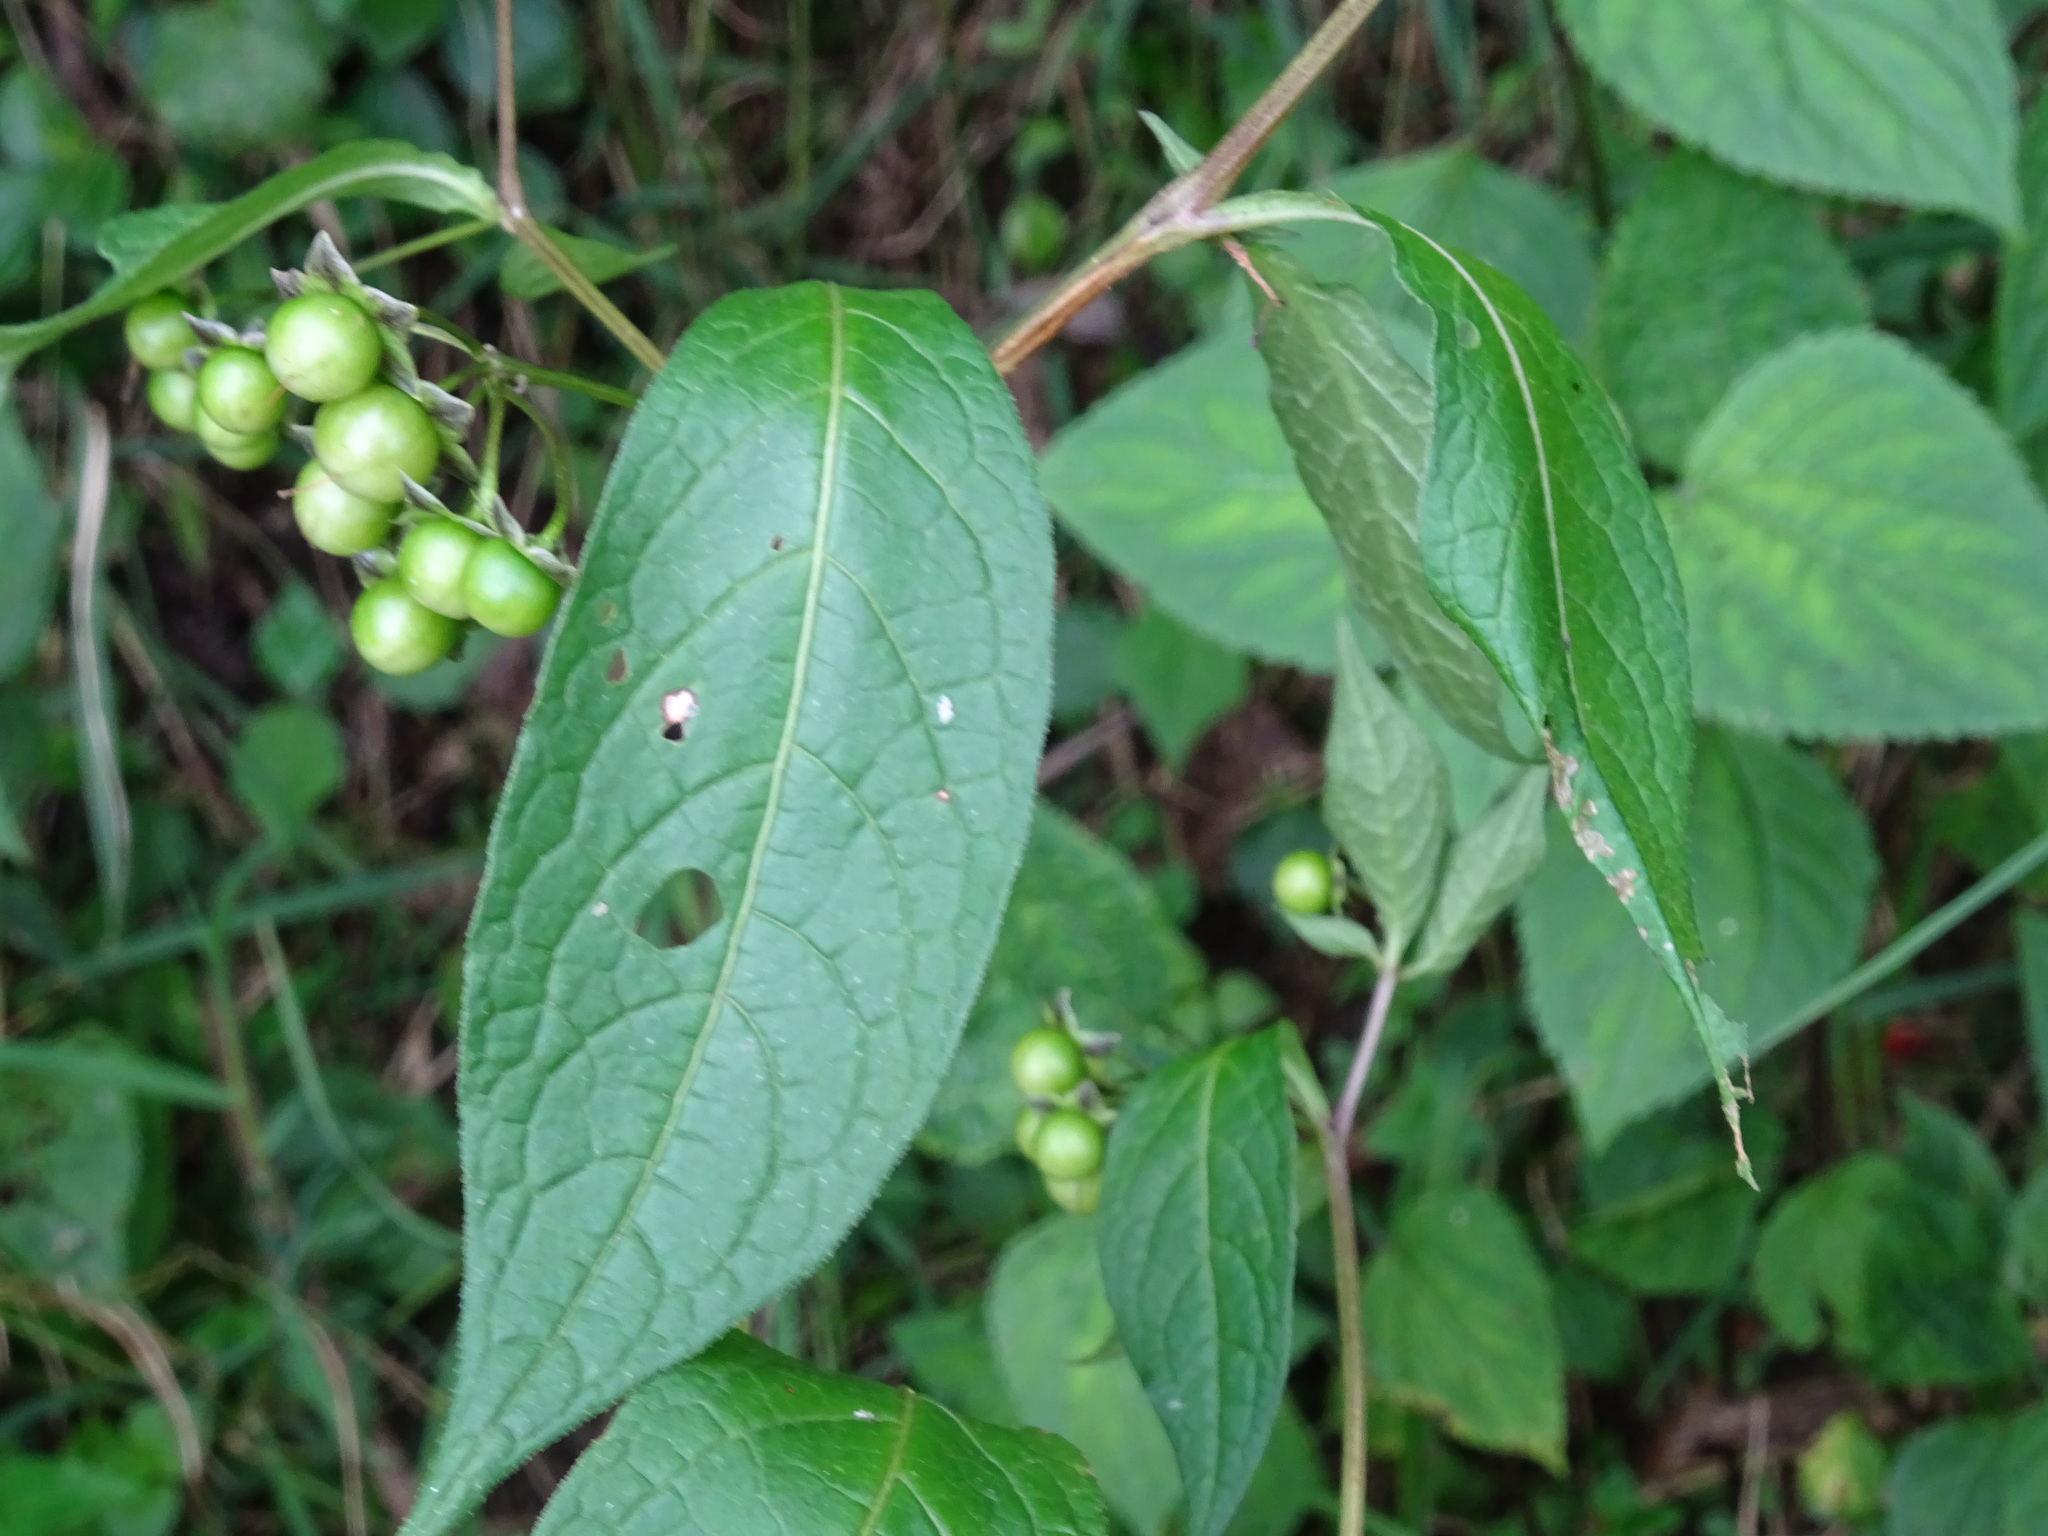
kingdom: Plantae
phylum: Tracheophyta
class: Magnoliopsida
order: Solanales
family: Solanaceae
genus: Jaltomata
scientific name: Jaltomata repandidentata
